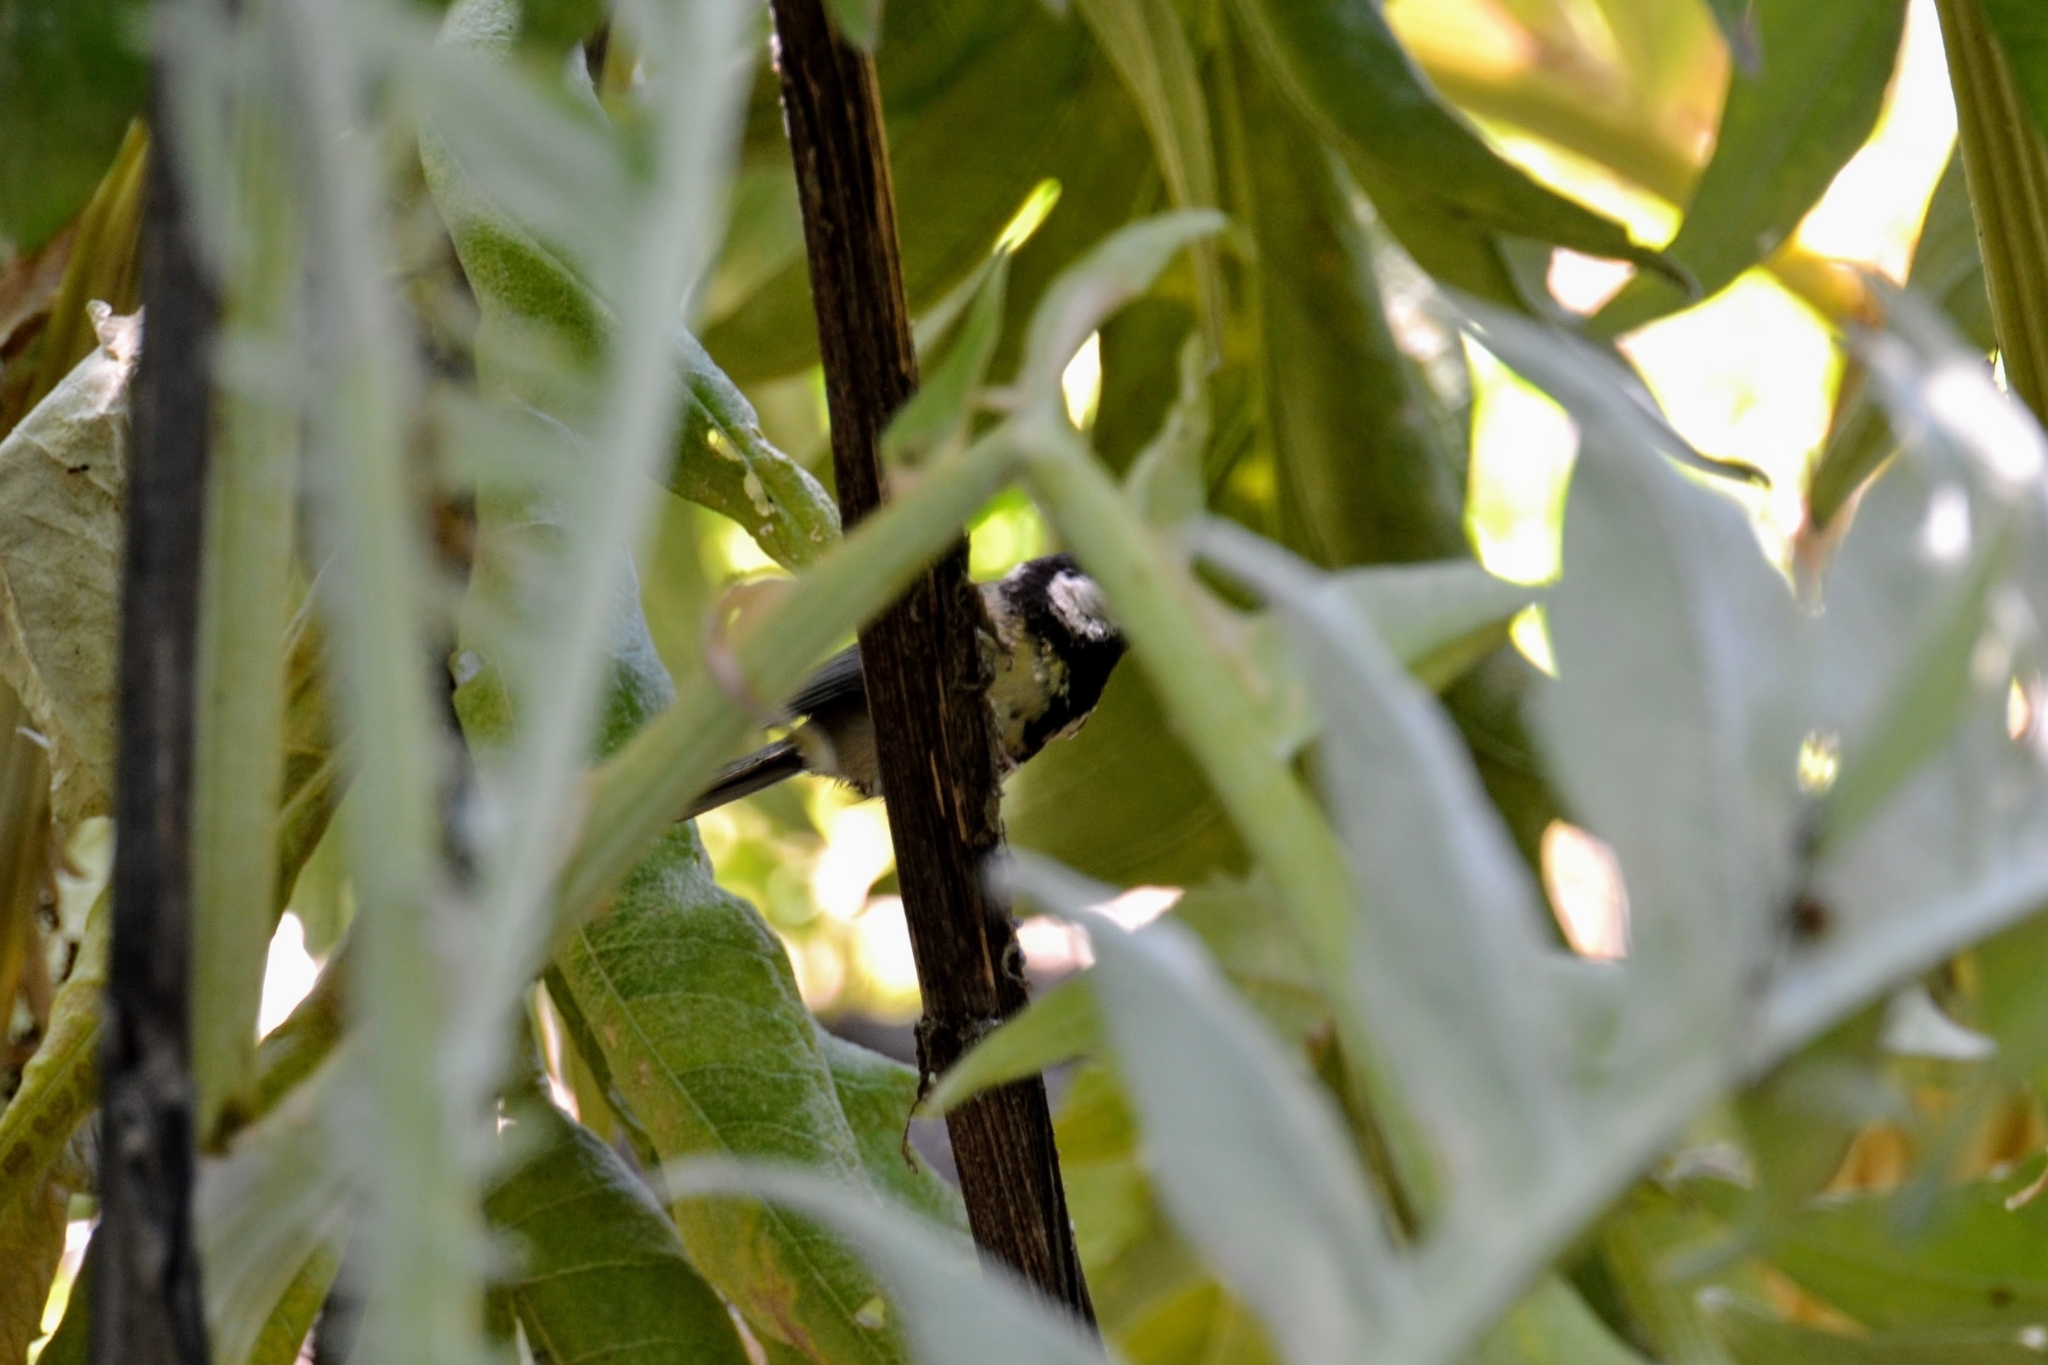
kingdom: Animalia
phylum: Chordata
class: Aves
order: Passeriformes
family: Paridae
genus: Parus
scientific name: Parus major
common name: Great tit
